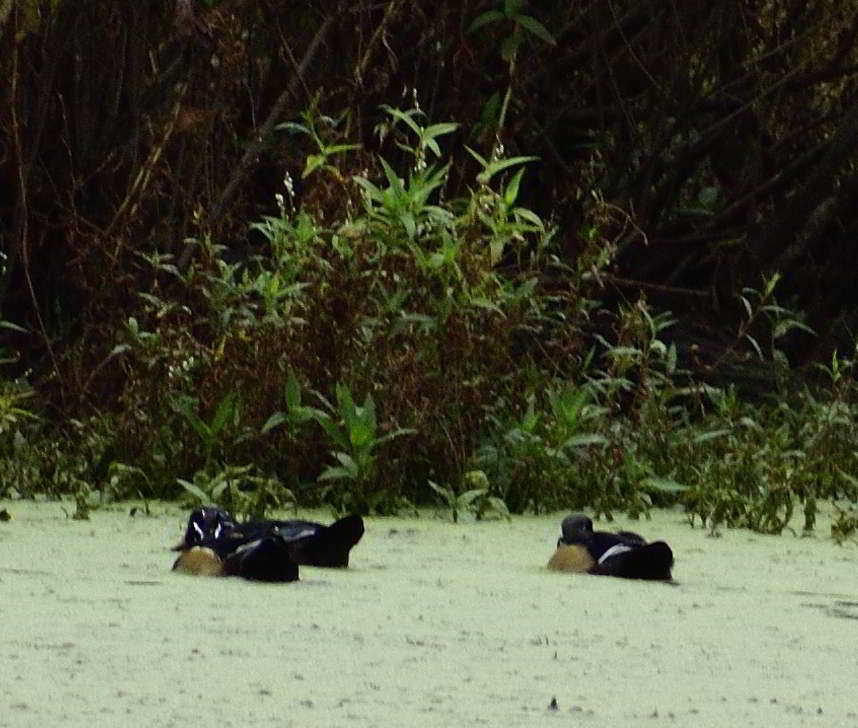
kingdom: Animalia
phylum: Chordata
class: Aves
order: Anseriformes
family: Anatidae
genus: Aix
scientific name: Aix sponsa
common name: Wood duck
